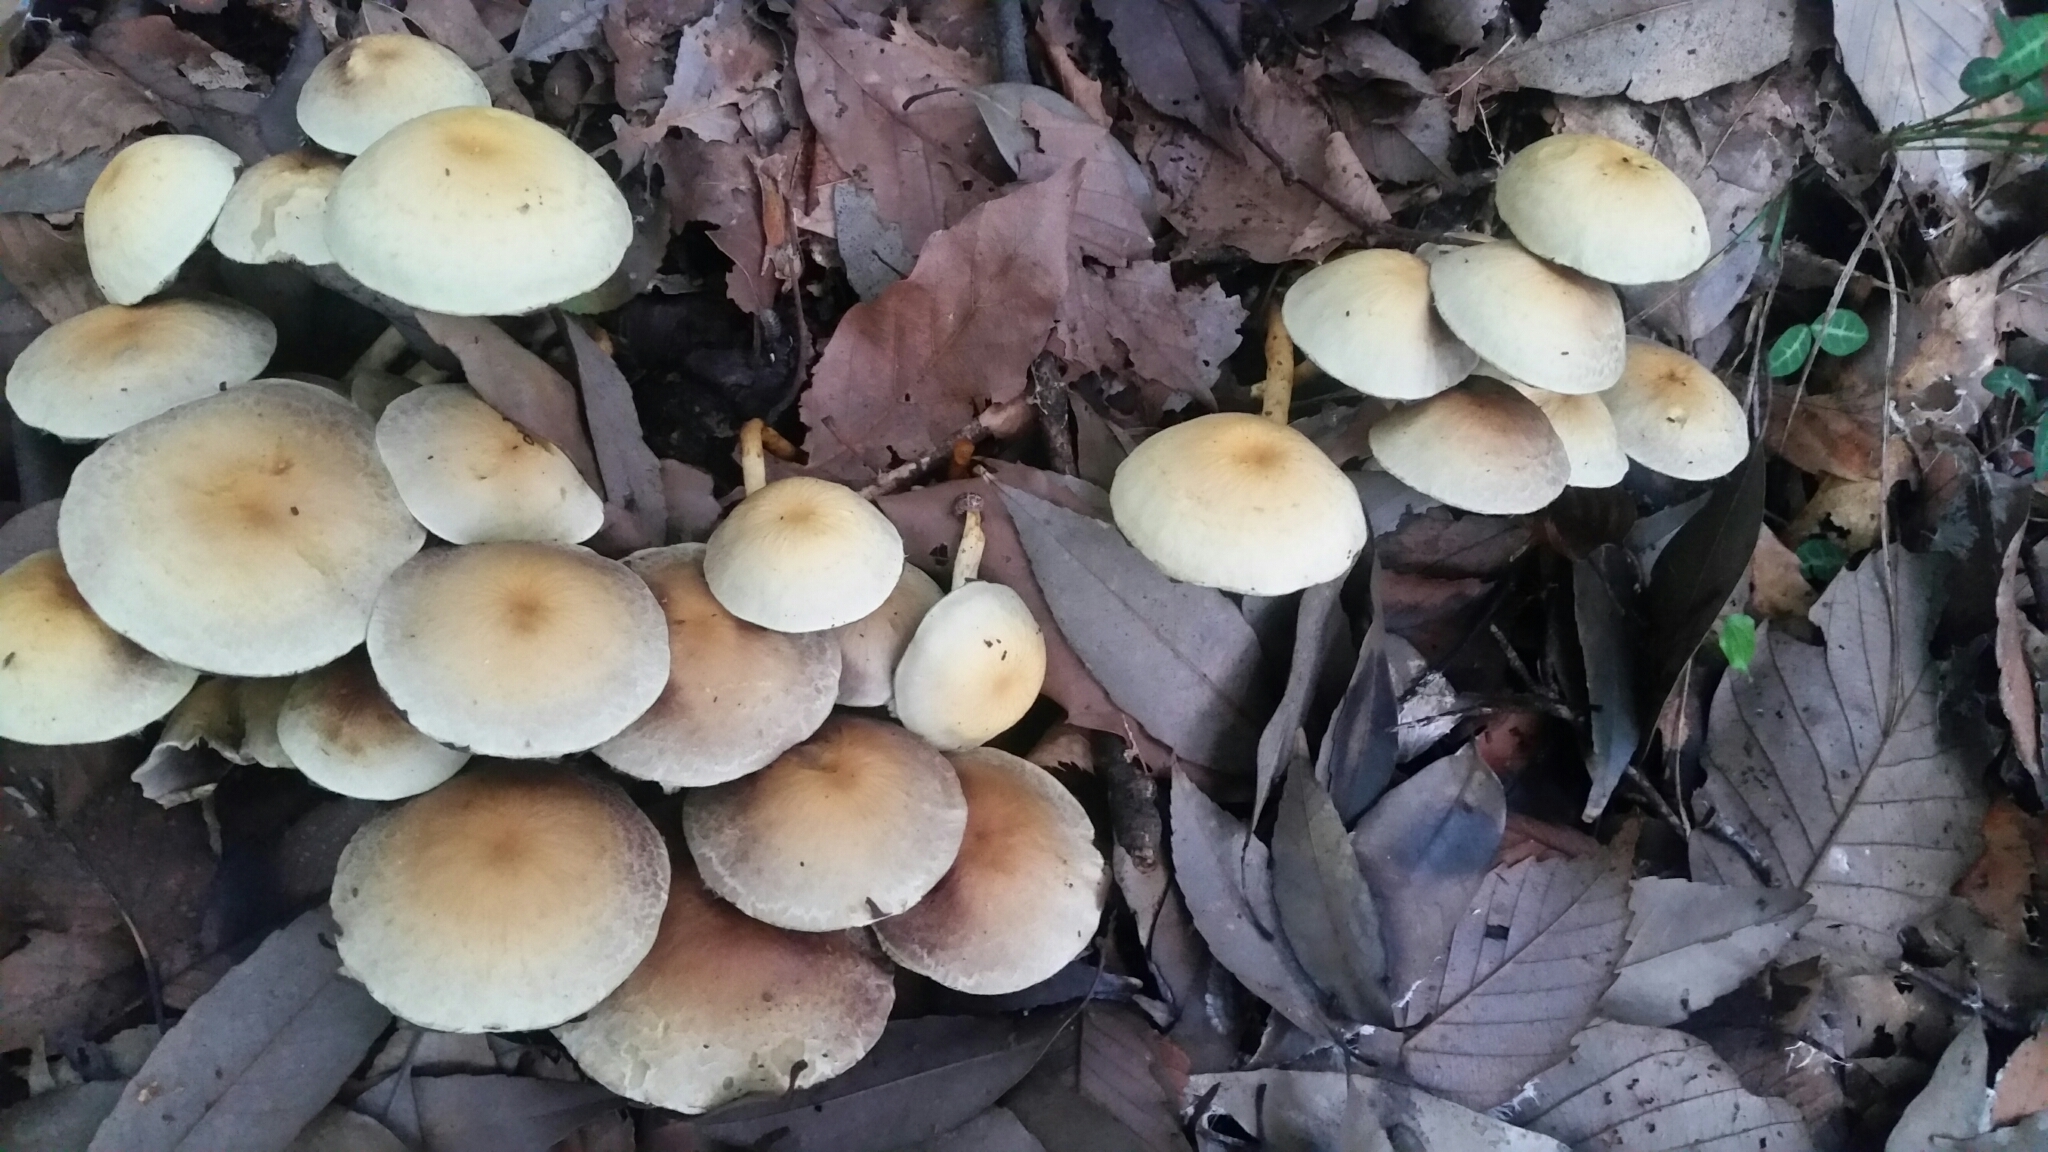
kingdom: Fungi
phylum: Basidiomycota
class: Agaricomycetes
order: Agaricales
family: Strophariaceae
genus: Hypholoma
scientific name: Hypholoma fasciculare
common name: Sulphur tuft
